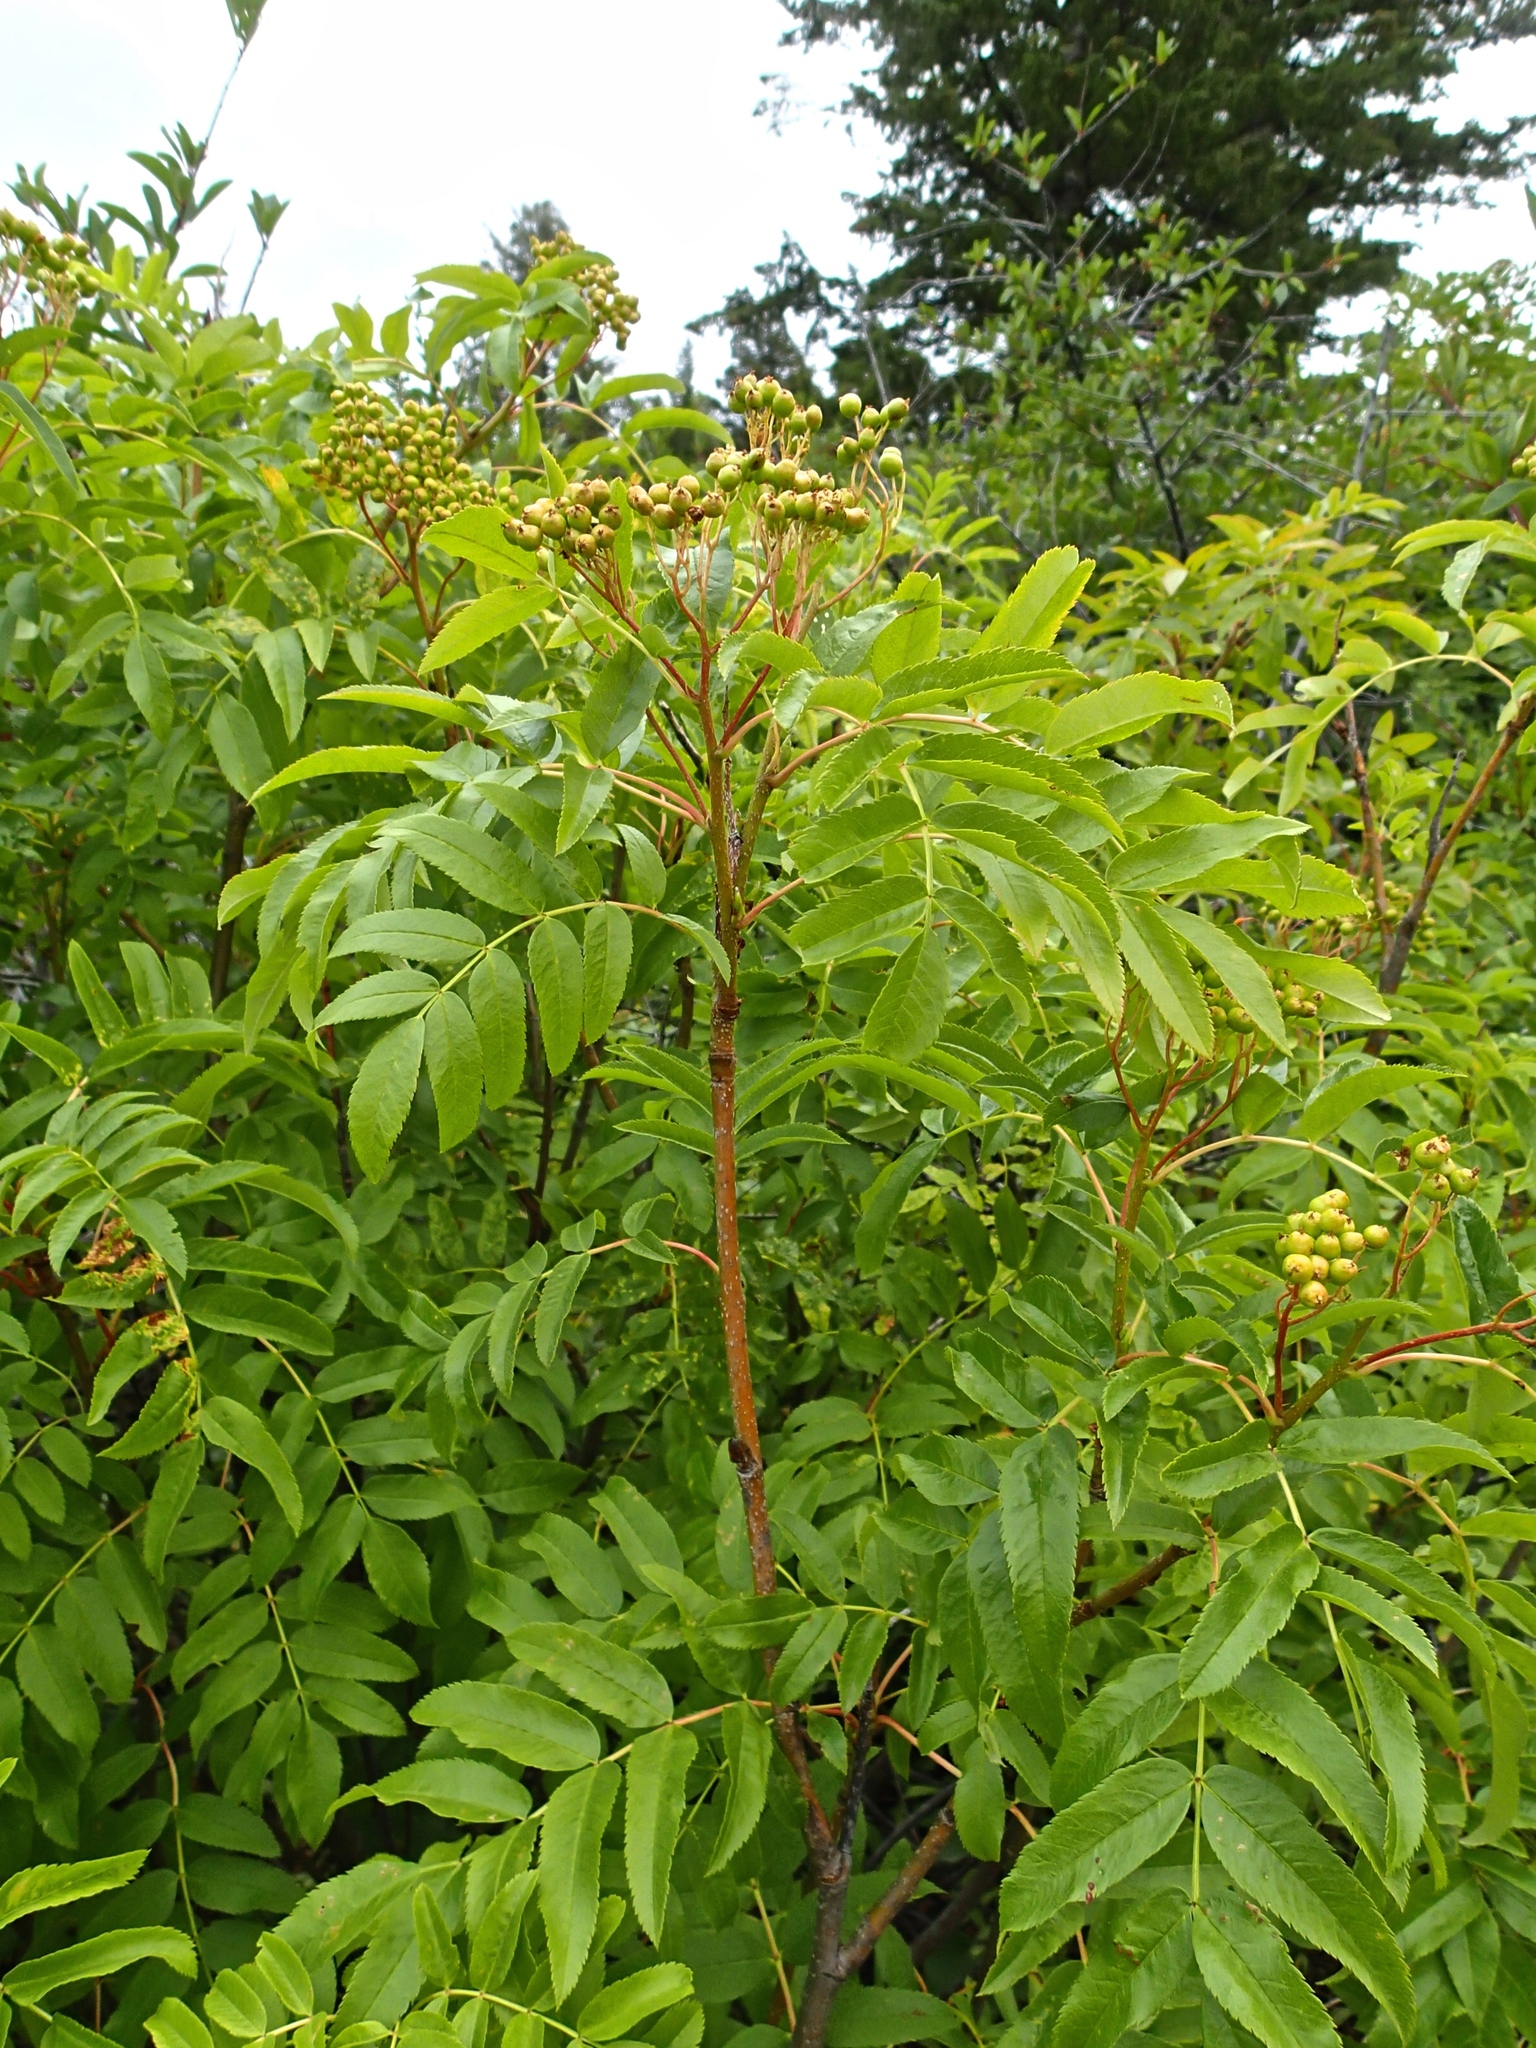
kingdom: Plantae
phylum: Tracheophyta
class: Magnoliopsida
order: Rosales
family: Rosaceae
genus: Sorbus
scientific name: Sorbus scopulina
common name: Greene's mountain-ash
